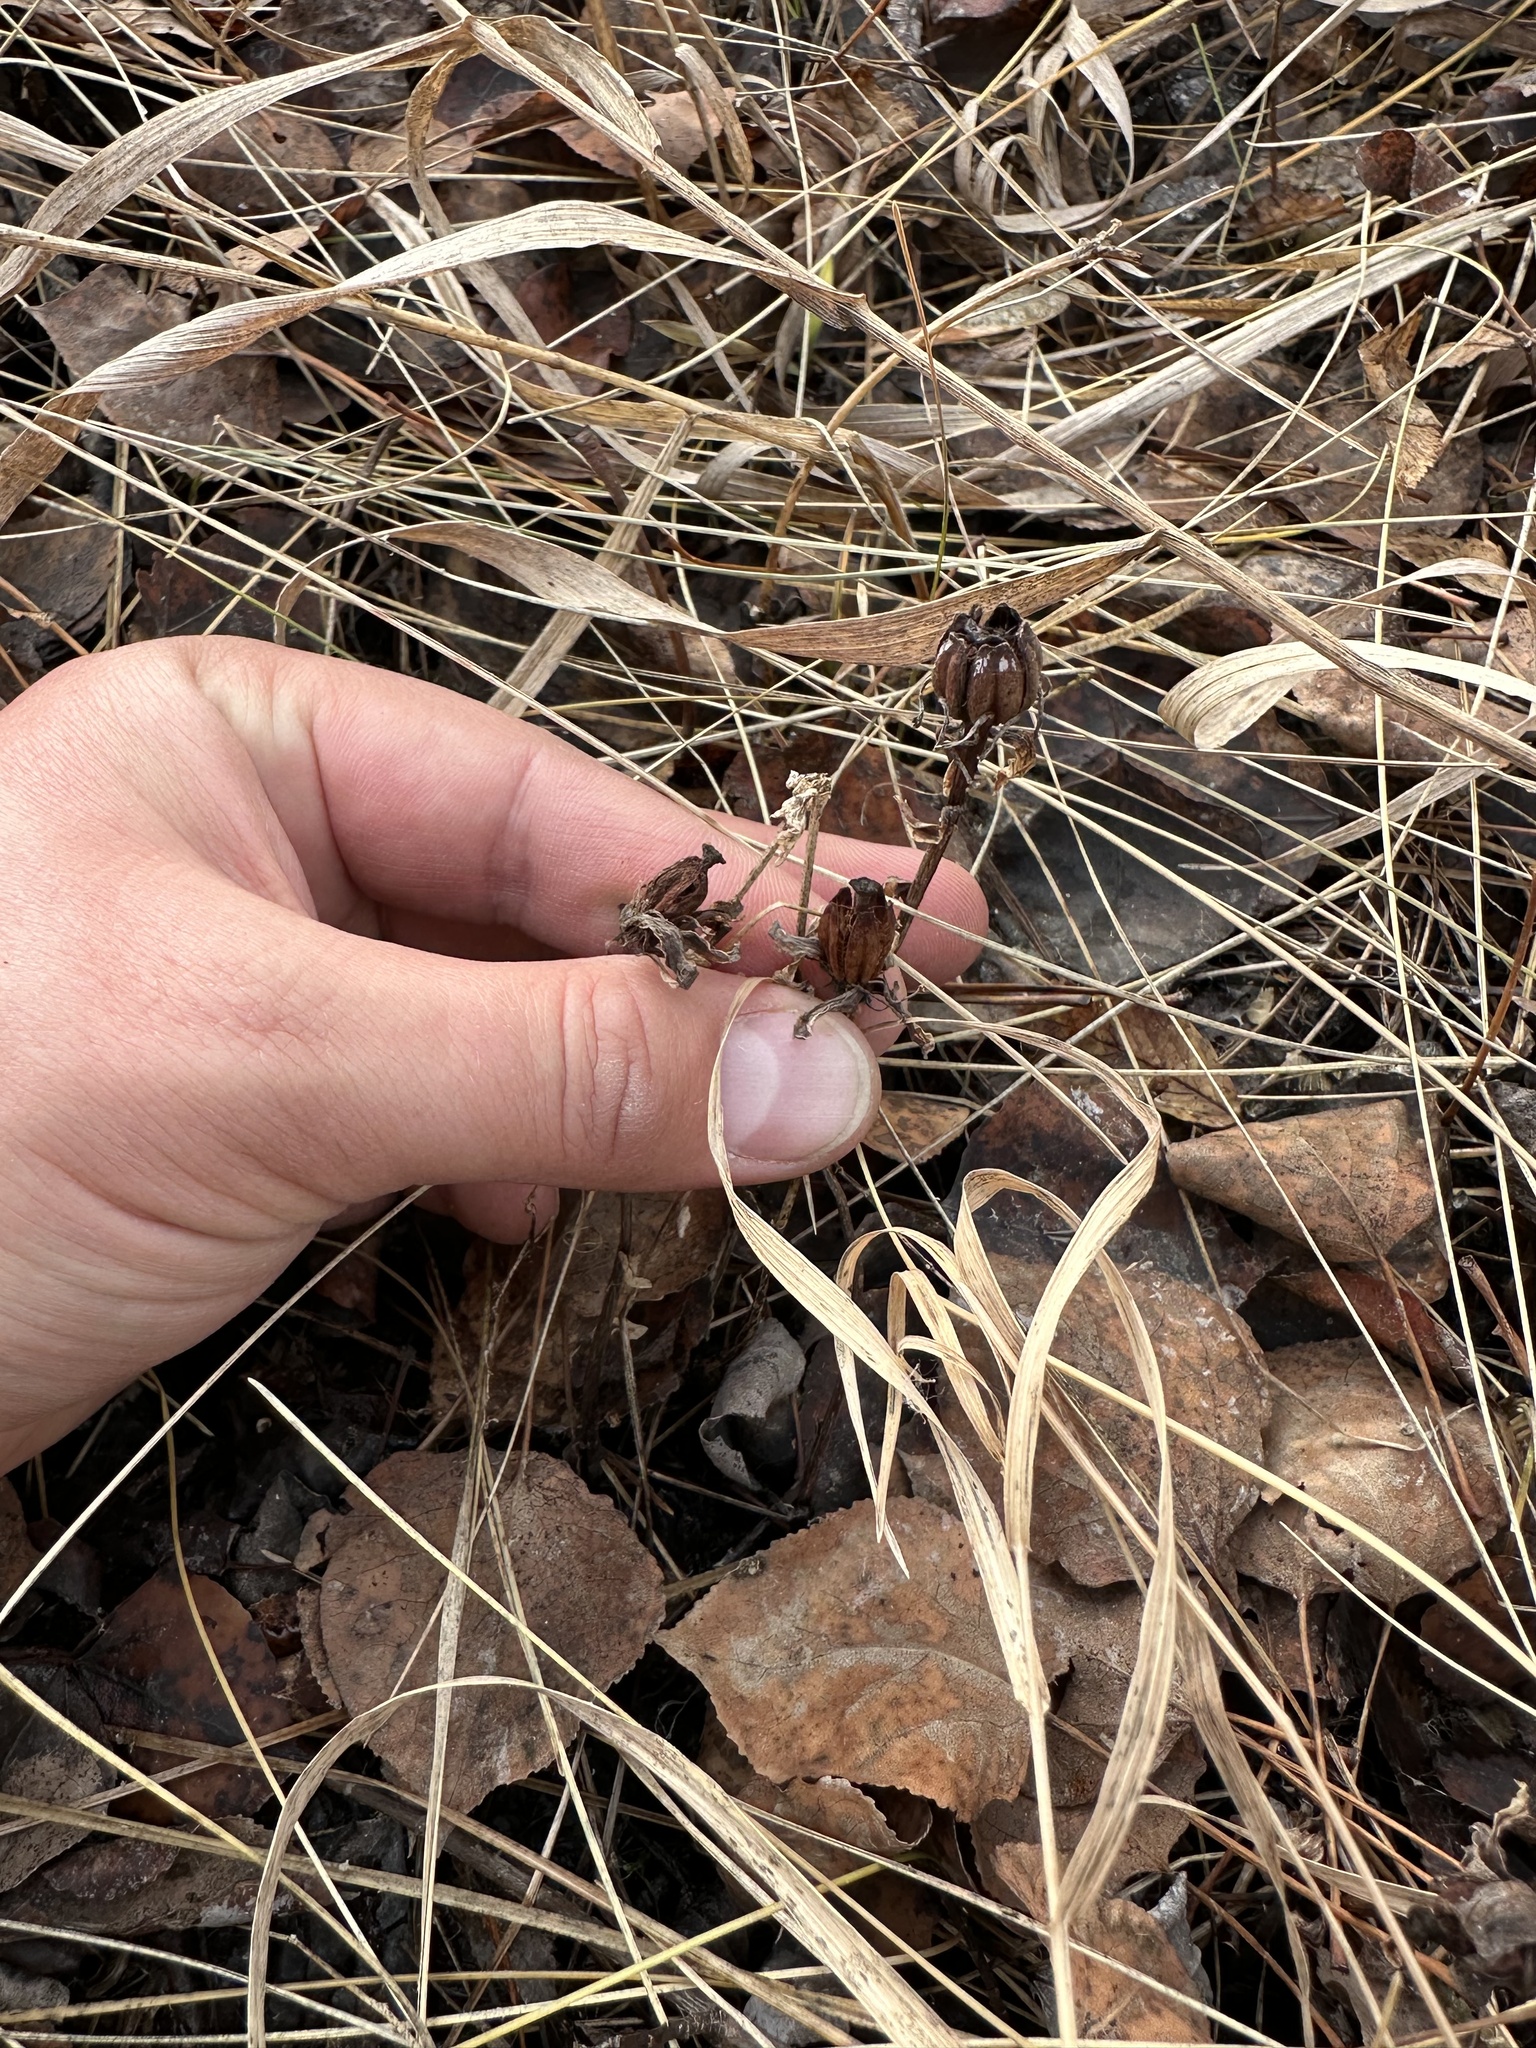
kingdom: Plantae
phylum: Tracheophyta
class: Magnoliopsida
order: Ericales
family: Ericaceae
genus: Monotropa
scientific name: Monotropa uniflora
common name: Convulsion root
